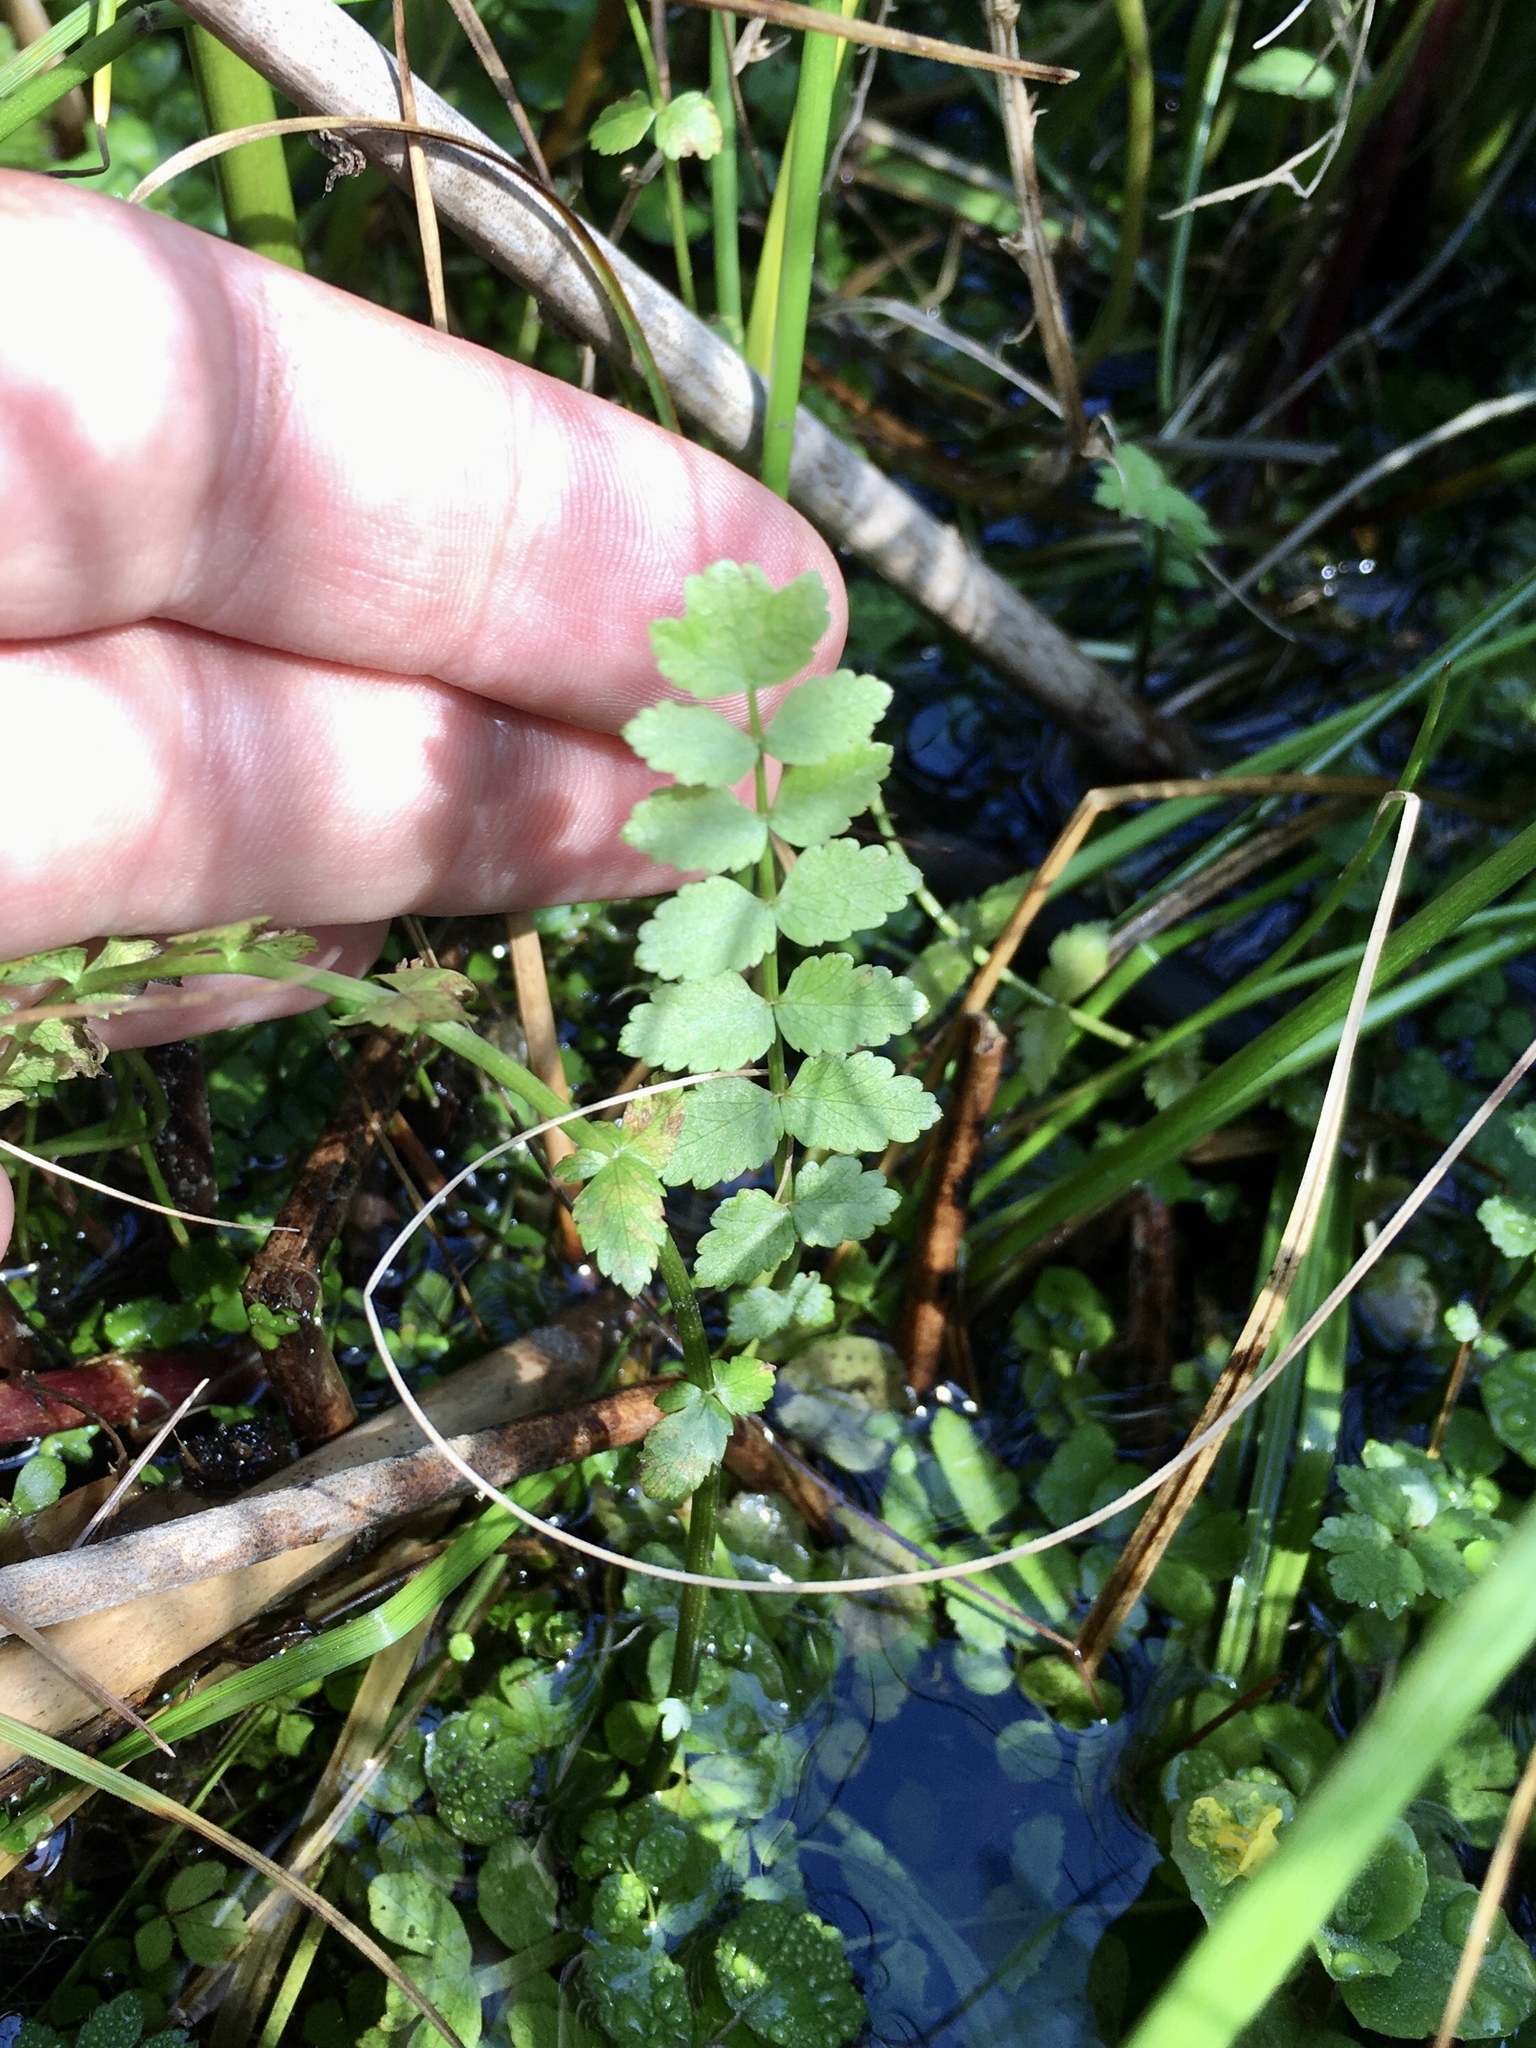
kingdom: Plantae
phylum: Tracheophyta
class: Magnoliopsida
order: Apiales
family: Apiaceae
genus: Berula
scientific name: Berula erecta
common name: Lesser water-parsnip
